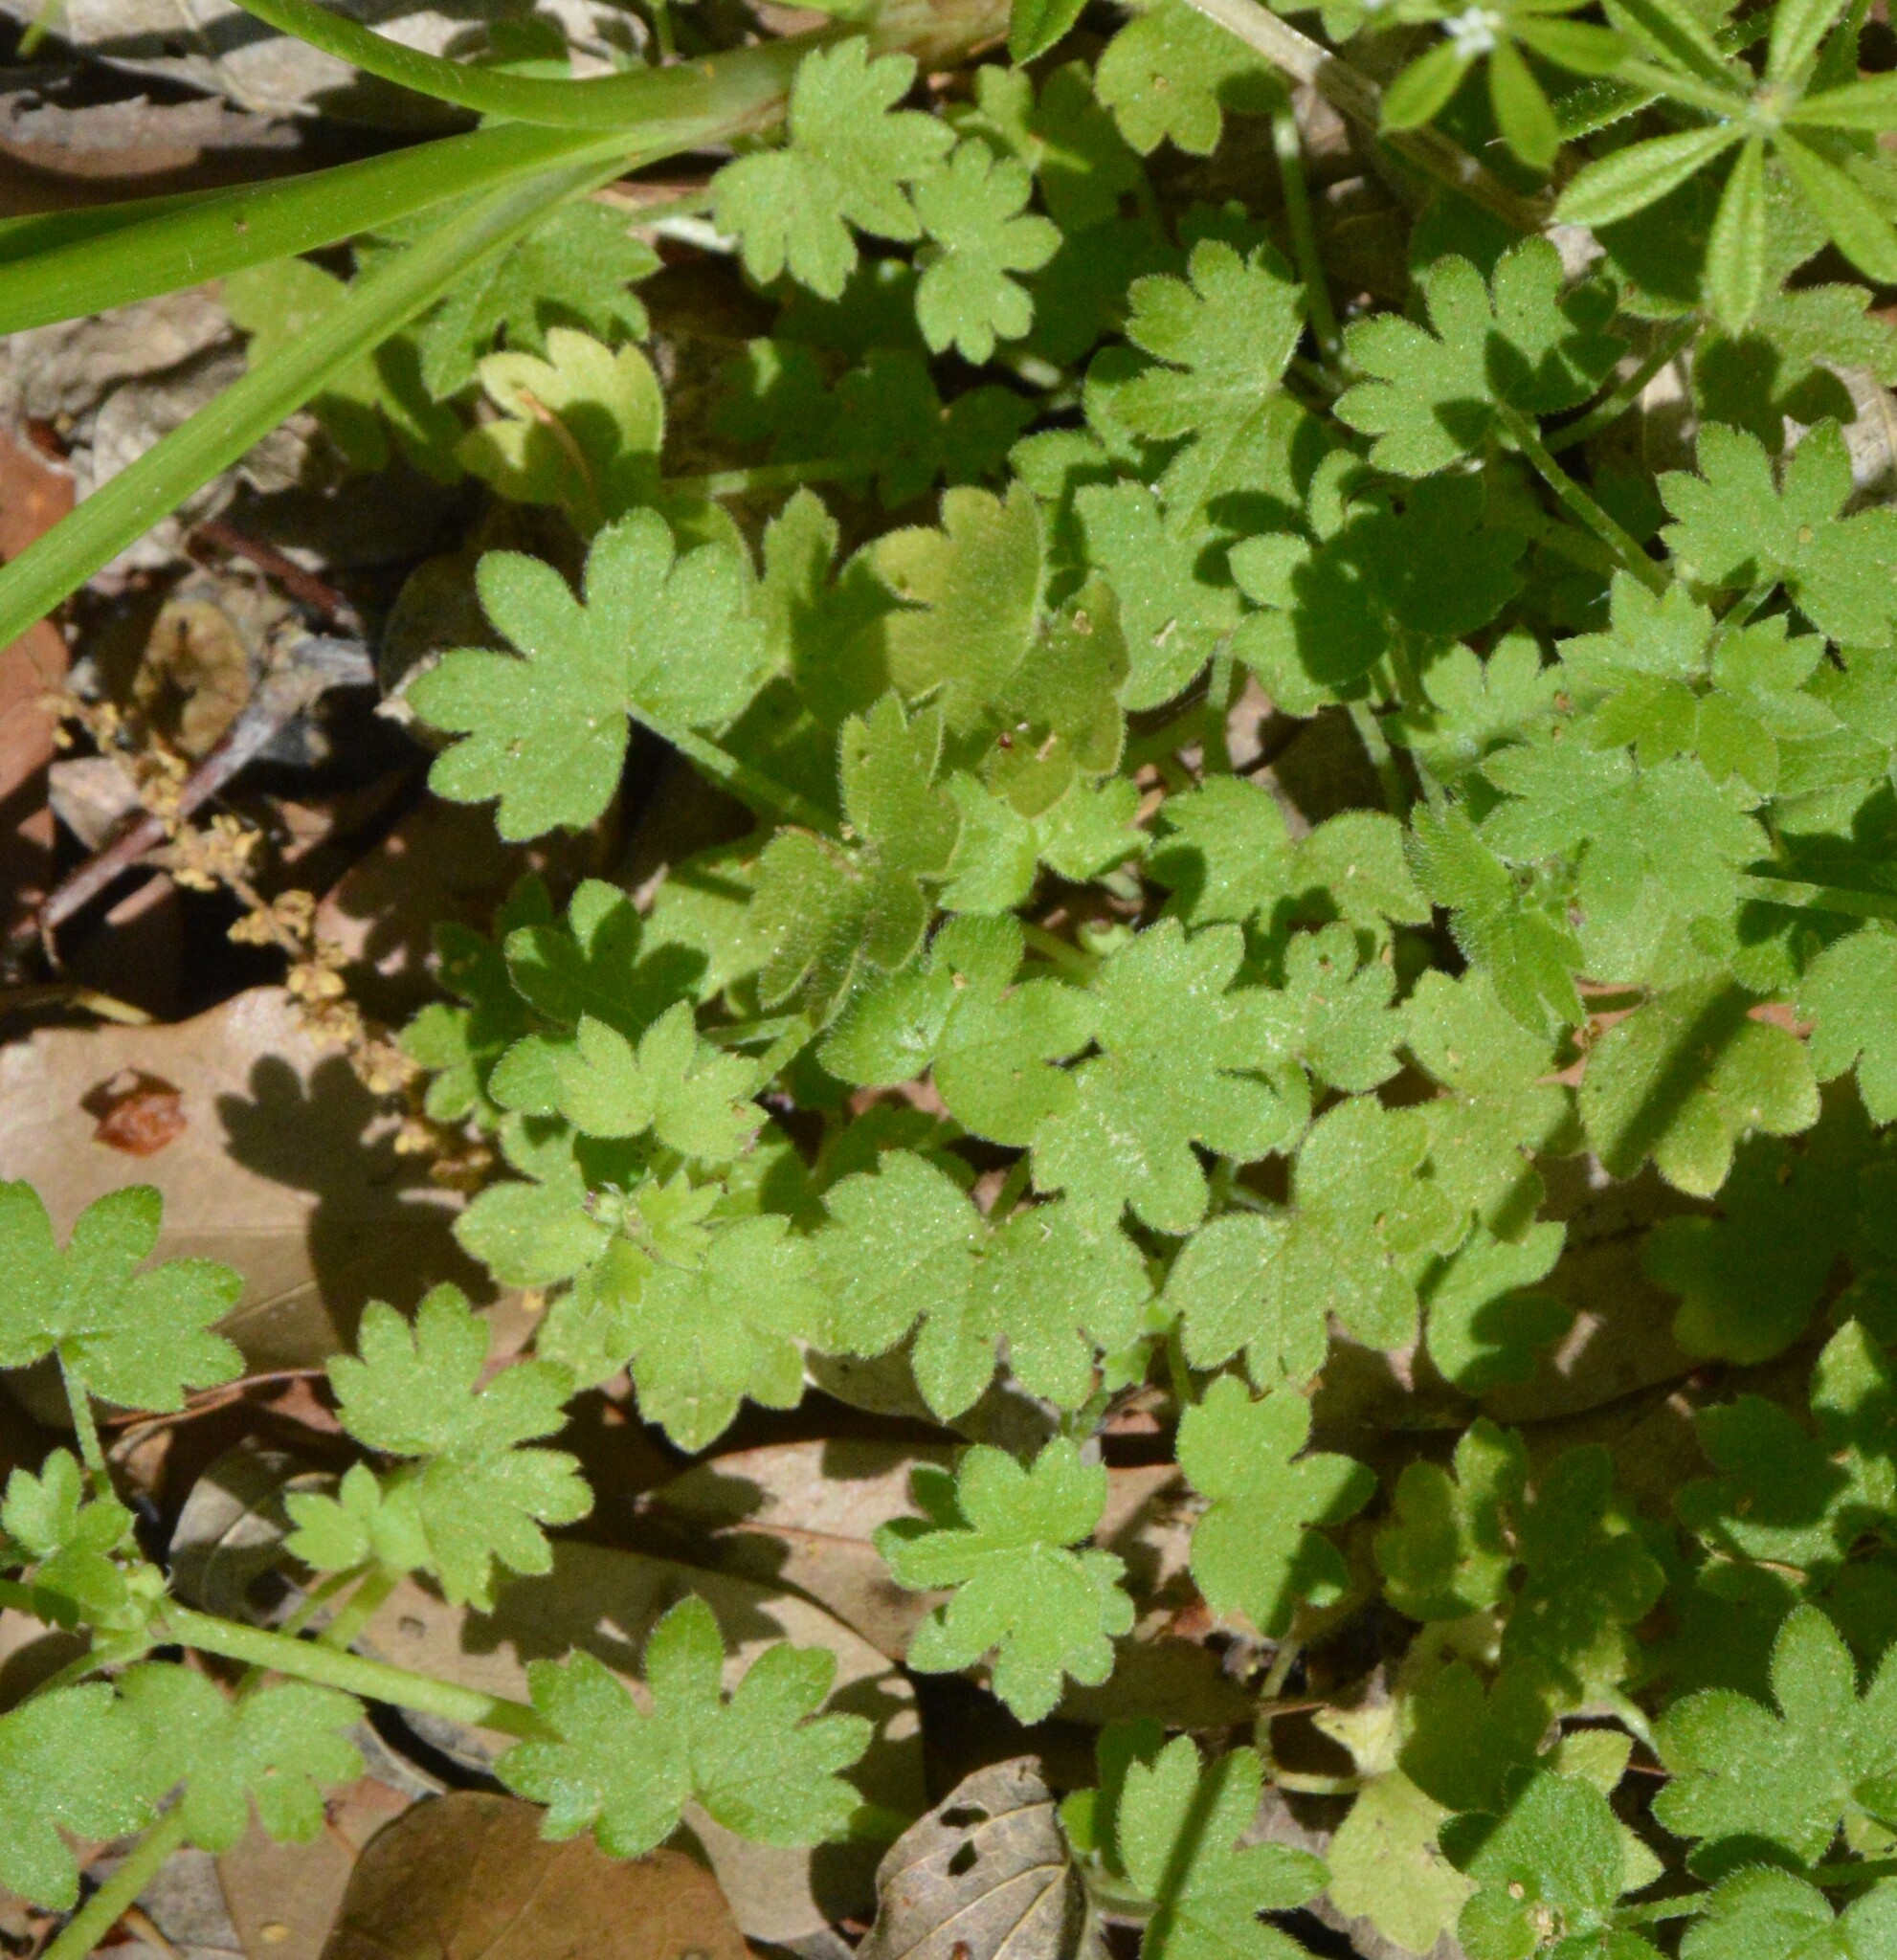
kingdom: Plantae
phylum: Tracheophyta
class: Magnoliopsida
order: Apiales
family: Apiaceae
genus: Bowlesia
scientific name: Bowlesia incana
